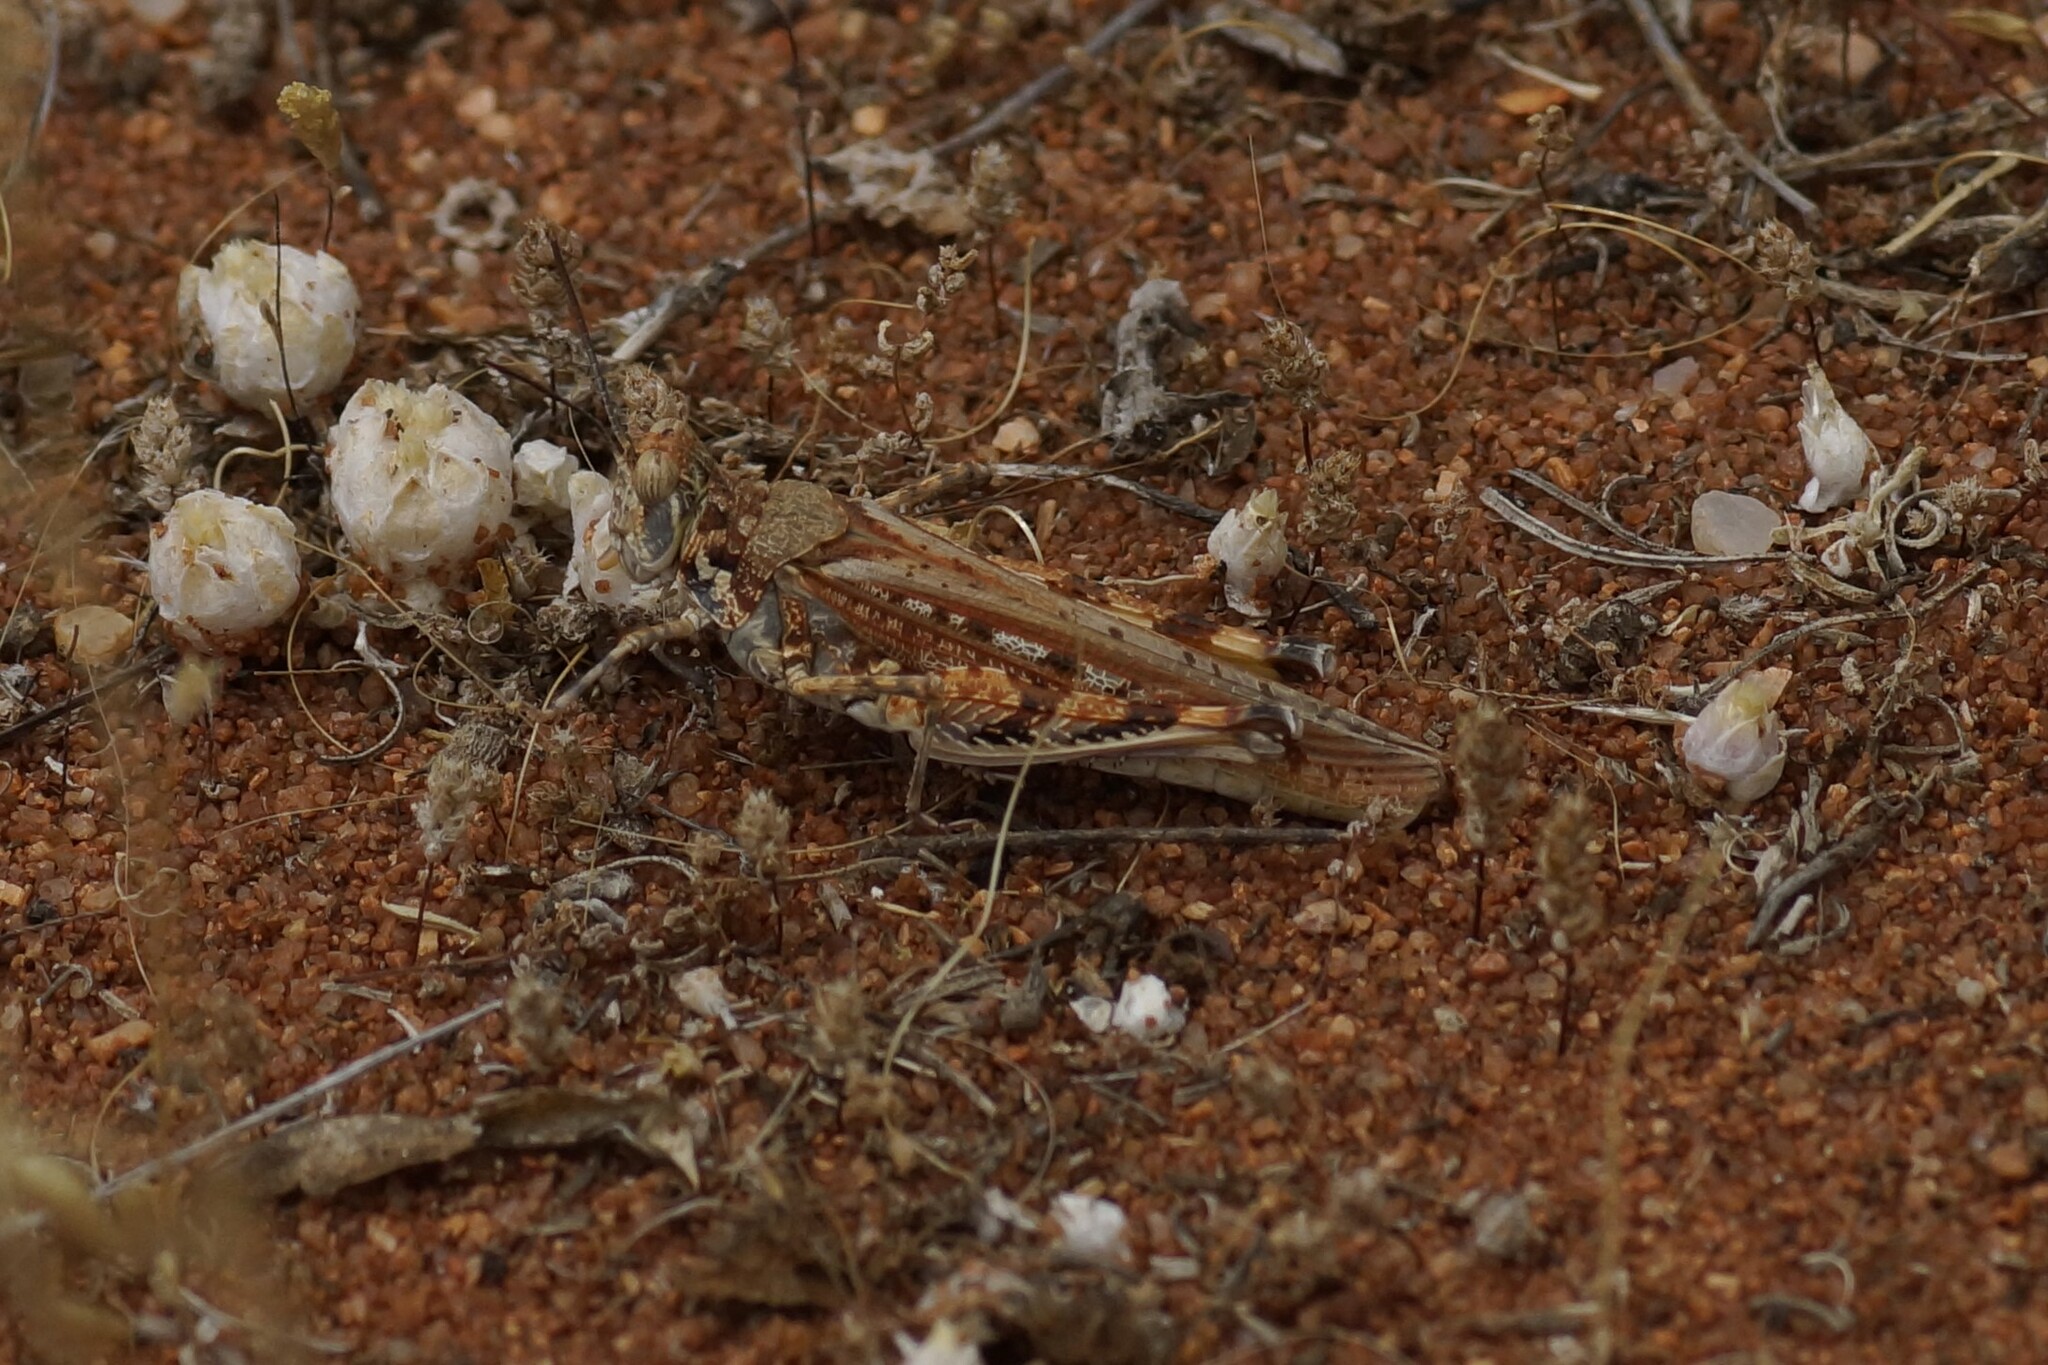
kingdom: Animalia
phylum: Arthropoda
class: Insecta
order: Orthoptera
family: Acrididae
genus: Urnisa
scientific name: Urnisa guttulosa
